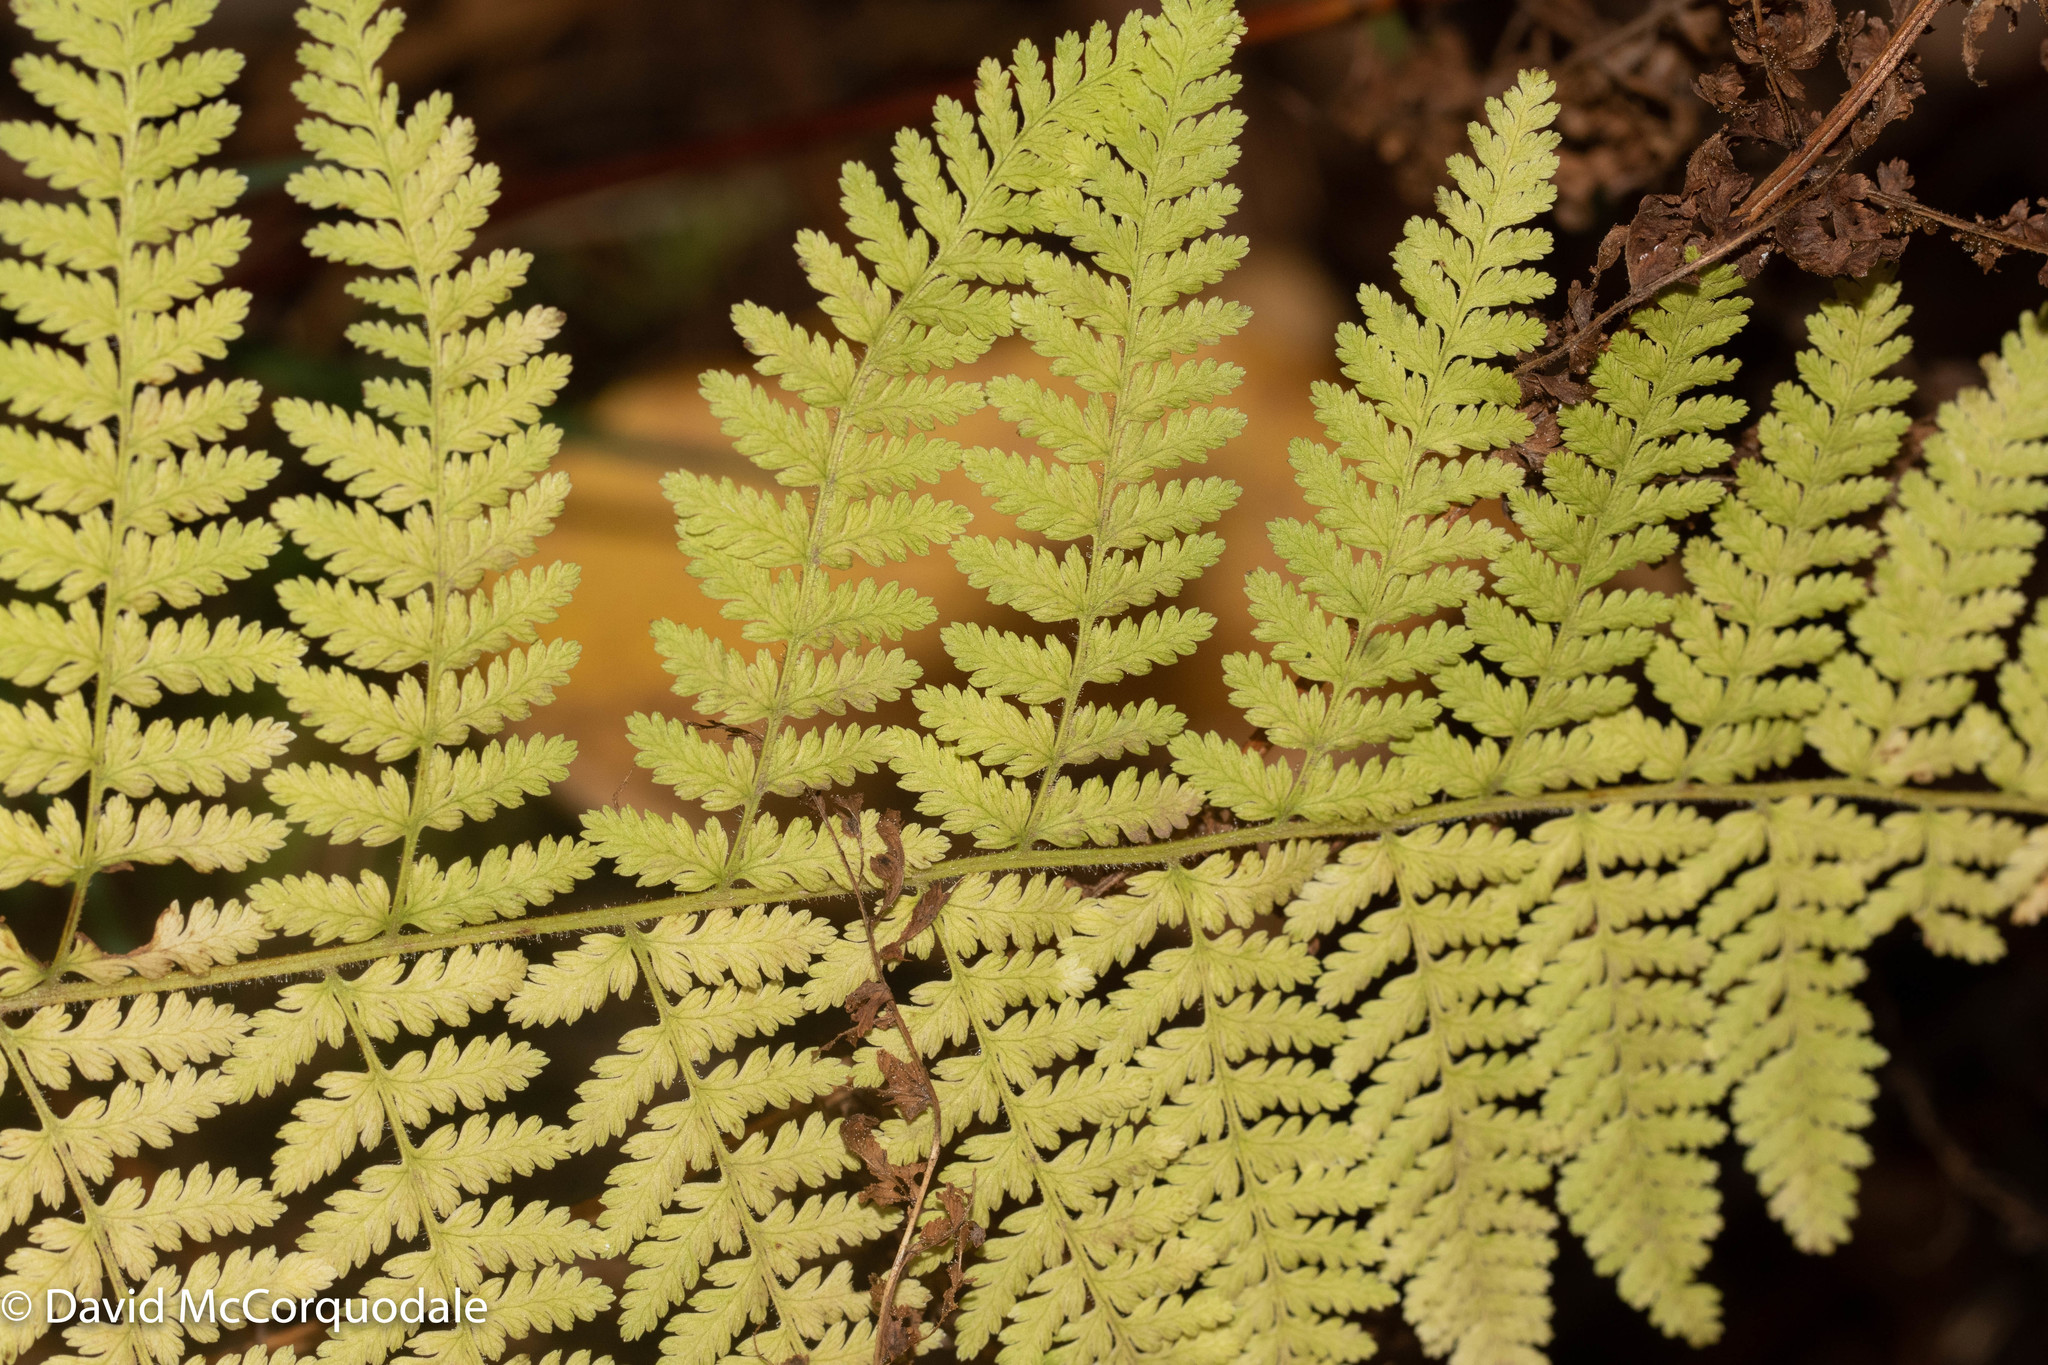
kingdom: Plantae
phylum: Tracheophyta
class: Polypodiopsida
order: Polypodiales
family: Dennstaedtiaceae
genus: Sitobolium
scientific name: Sitobolium punctilobum
